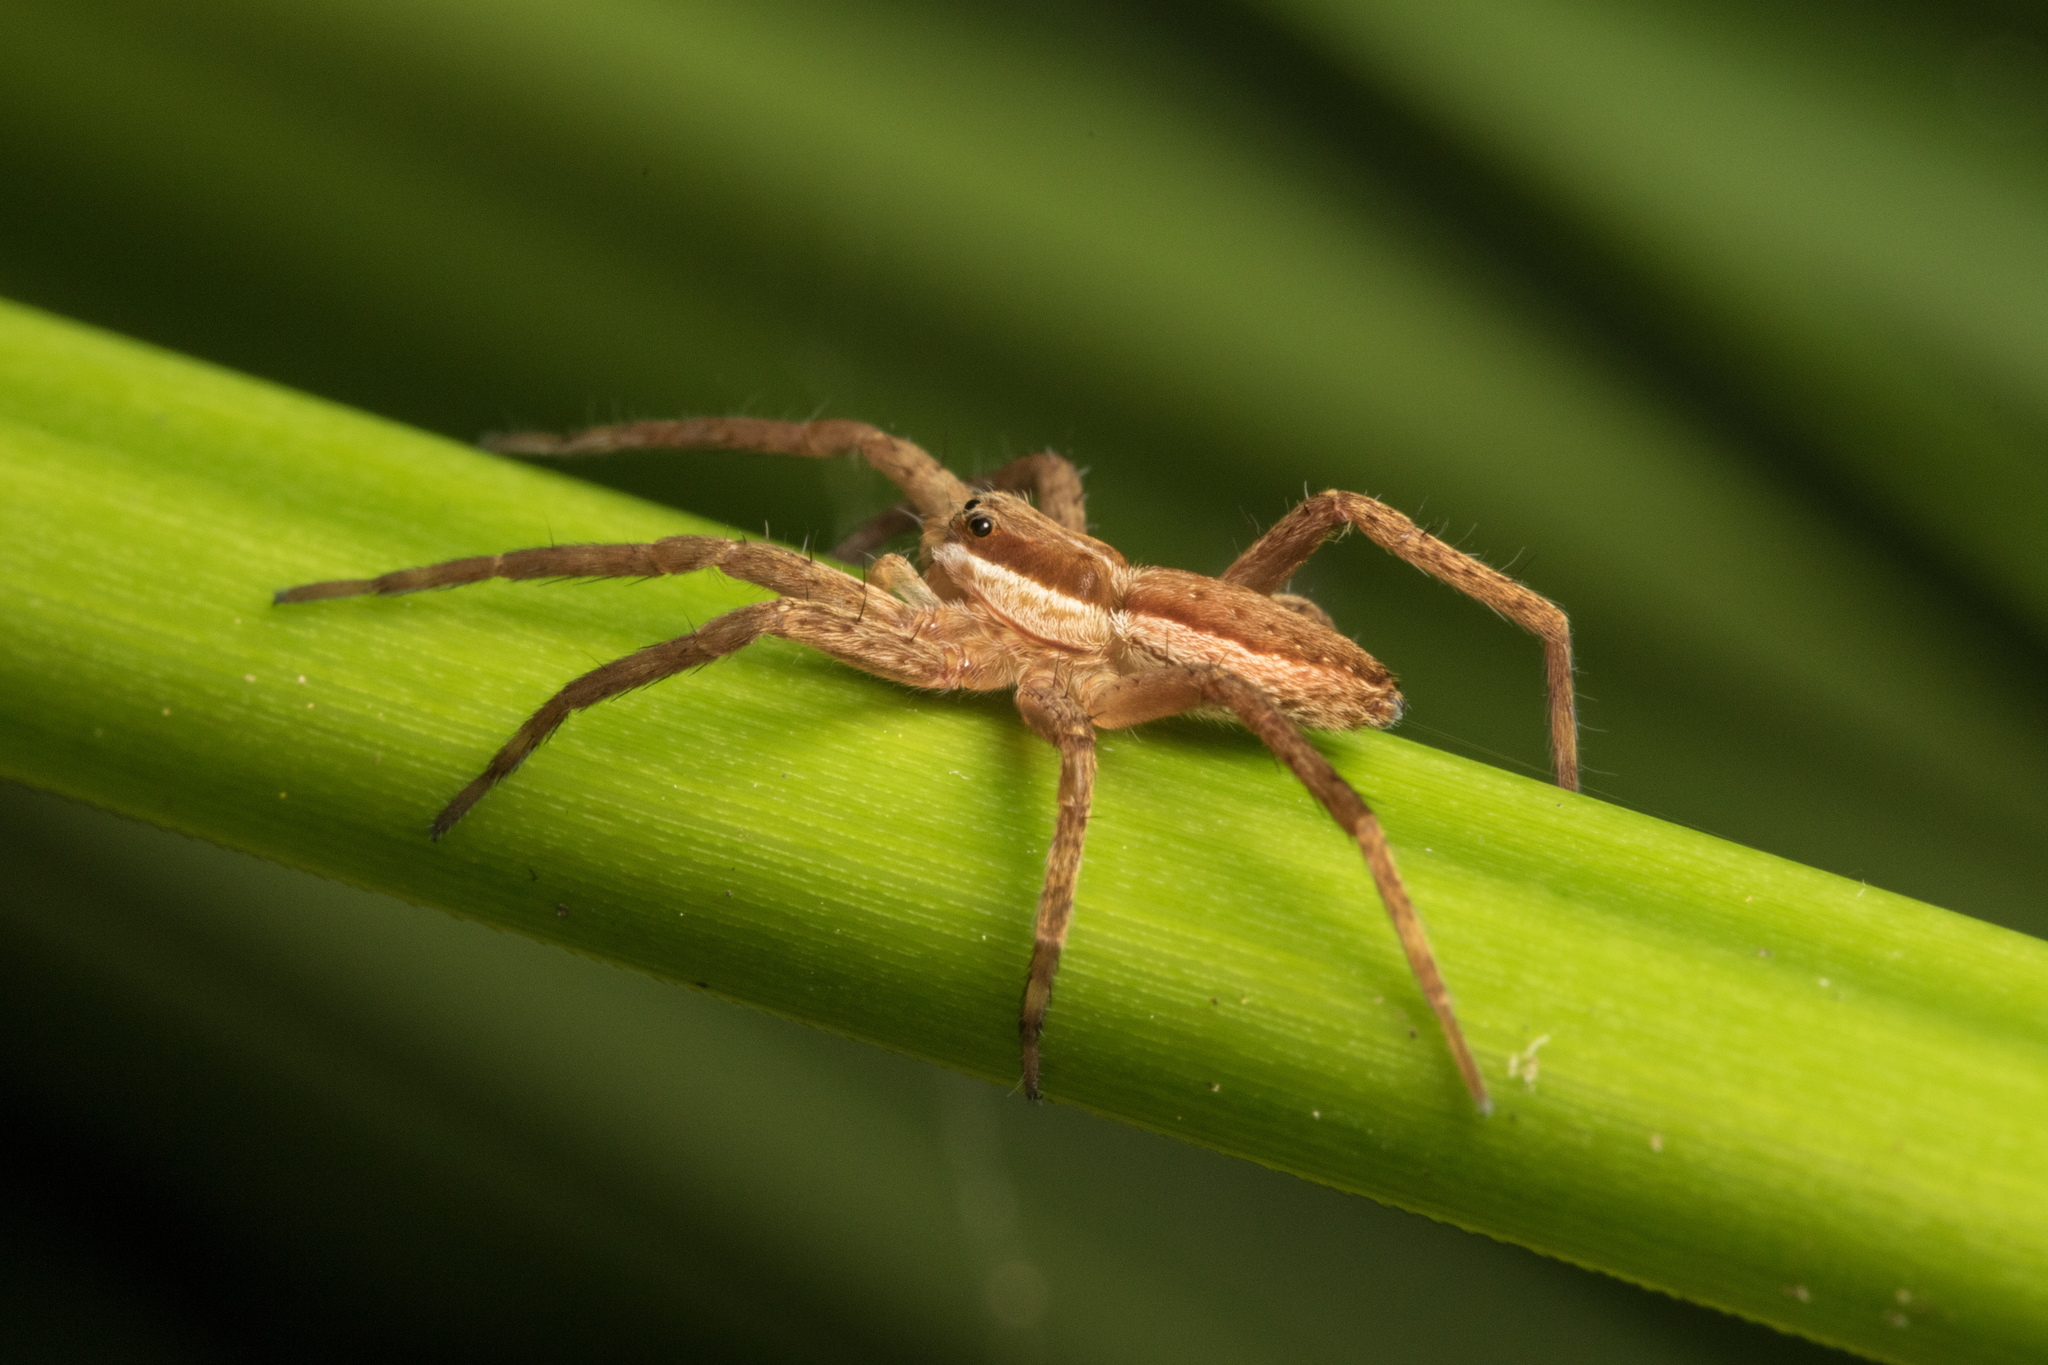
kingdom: Animalia
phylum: Arthropoda
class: Arachnida
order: Araneae
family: Pisauridae
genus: Dolomedes
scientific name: Dolomedes minor
